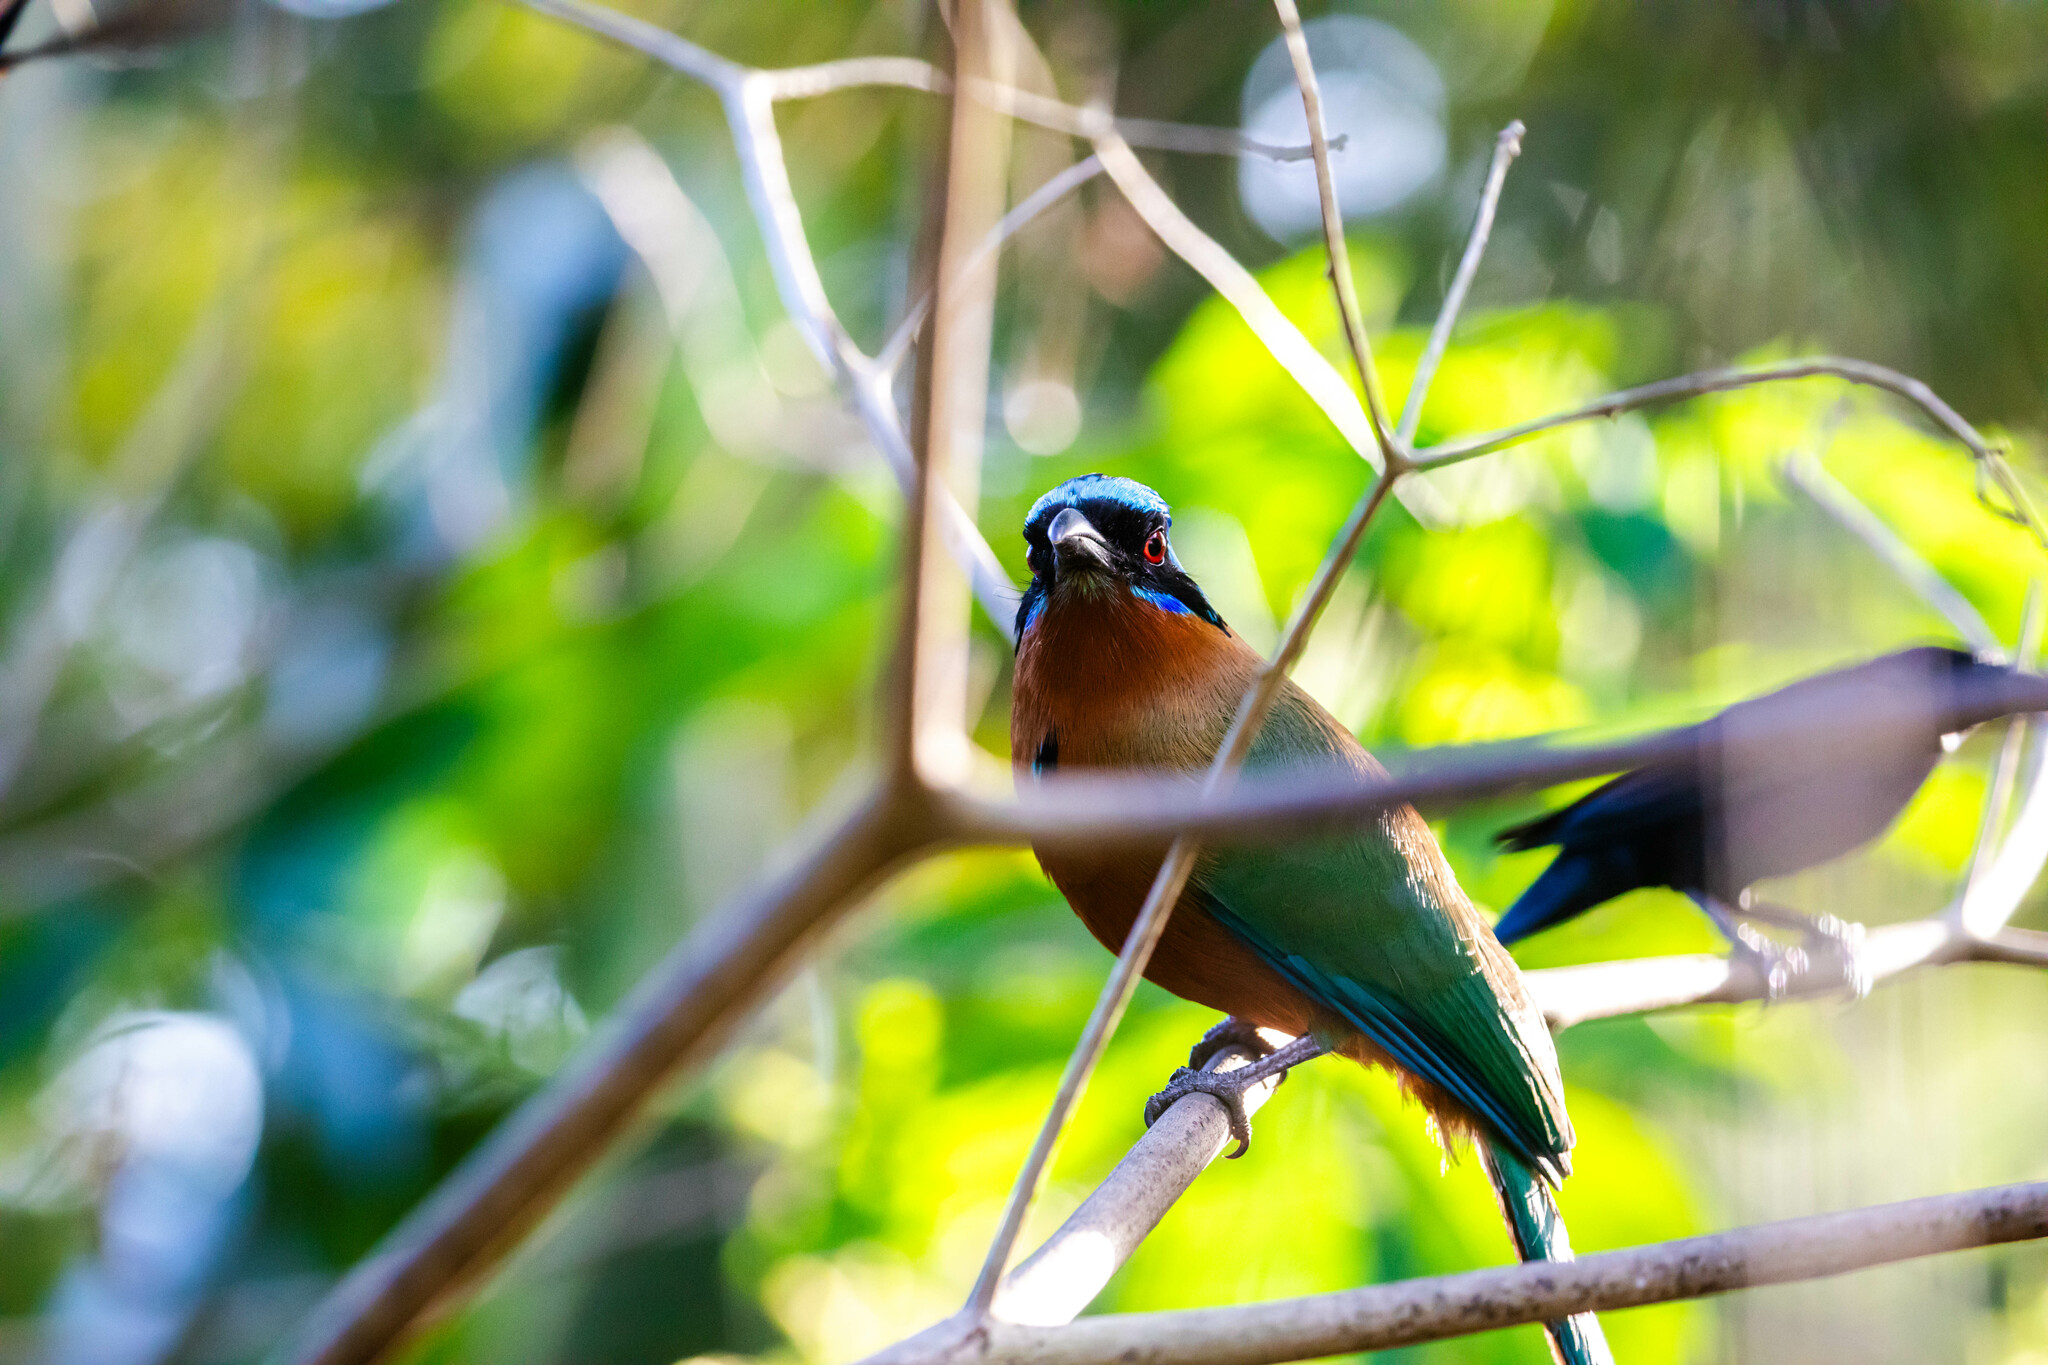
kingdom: Animalia
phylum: Chordata
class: Aves
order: Coraciiformes
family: Momotidae
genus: Momotus
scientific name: Momotus bahamensis
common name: Trinidad motmot
